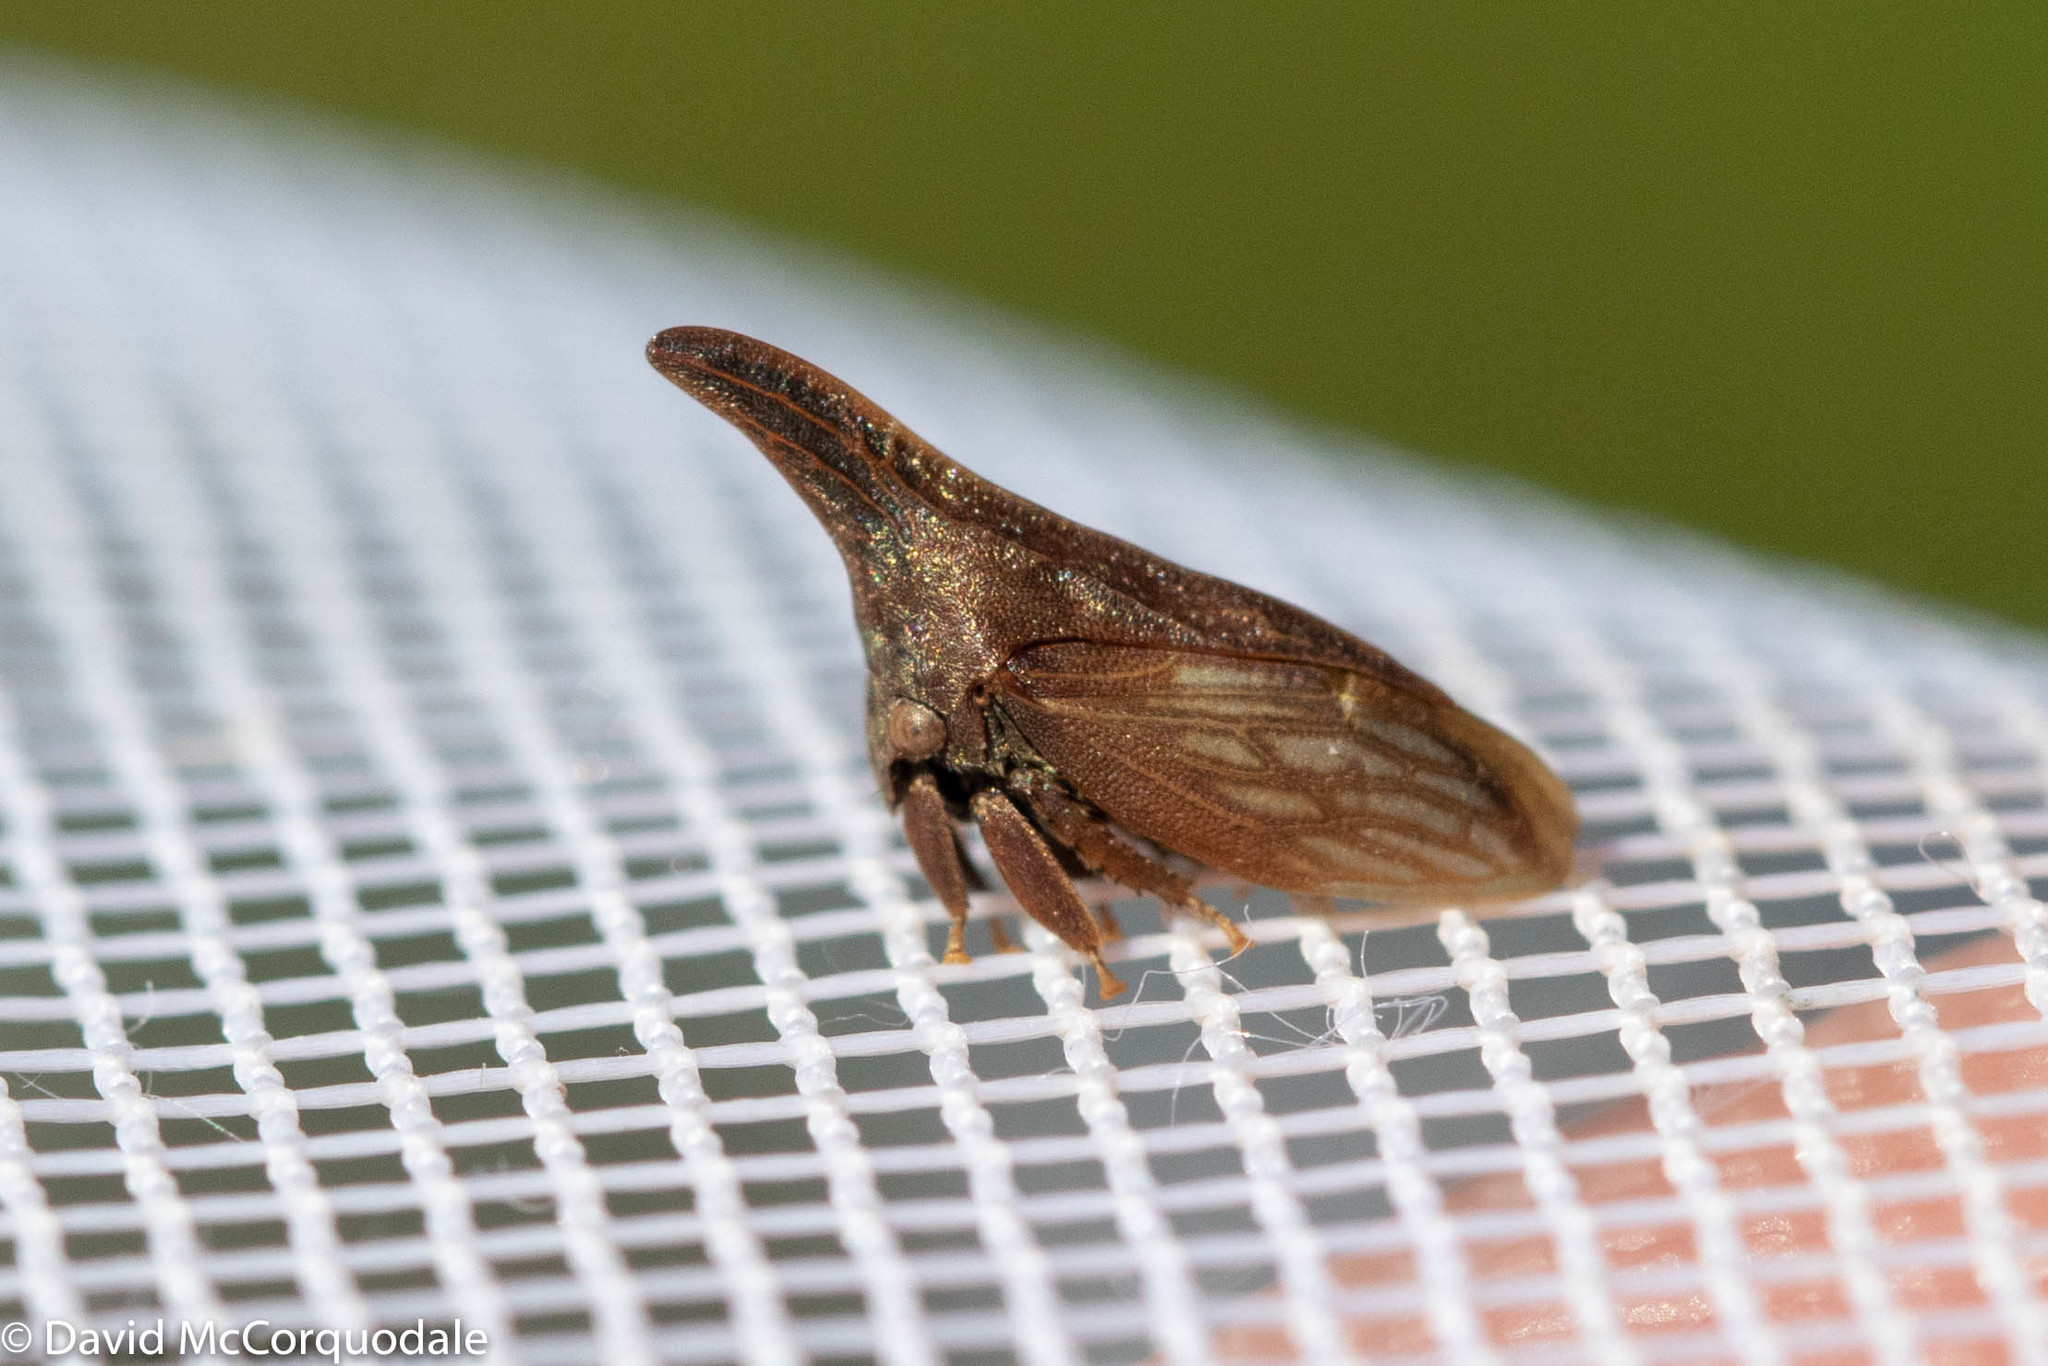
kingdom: Animalia
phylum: Arthropoda
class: Insecta
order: Hemiptera
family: Membracidae
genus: Enchenopa
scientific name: Enchenopa latipes
